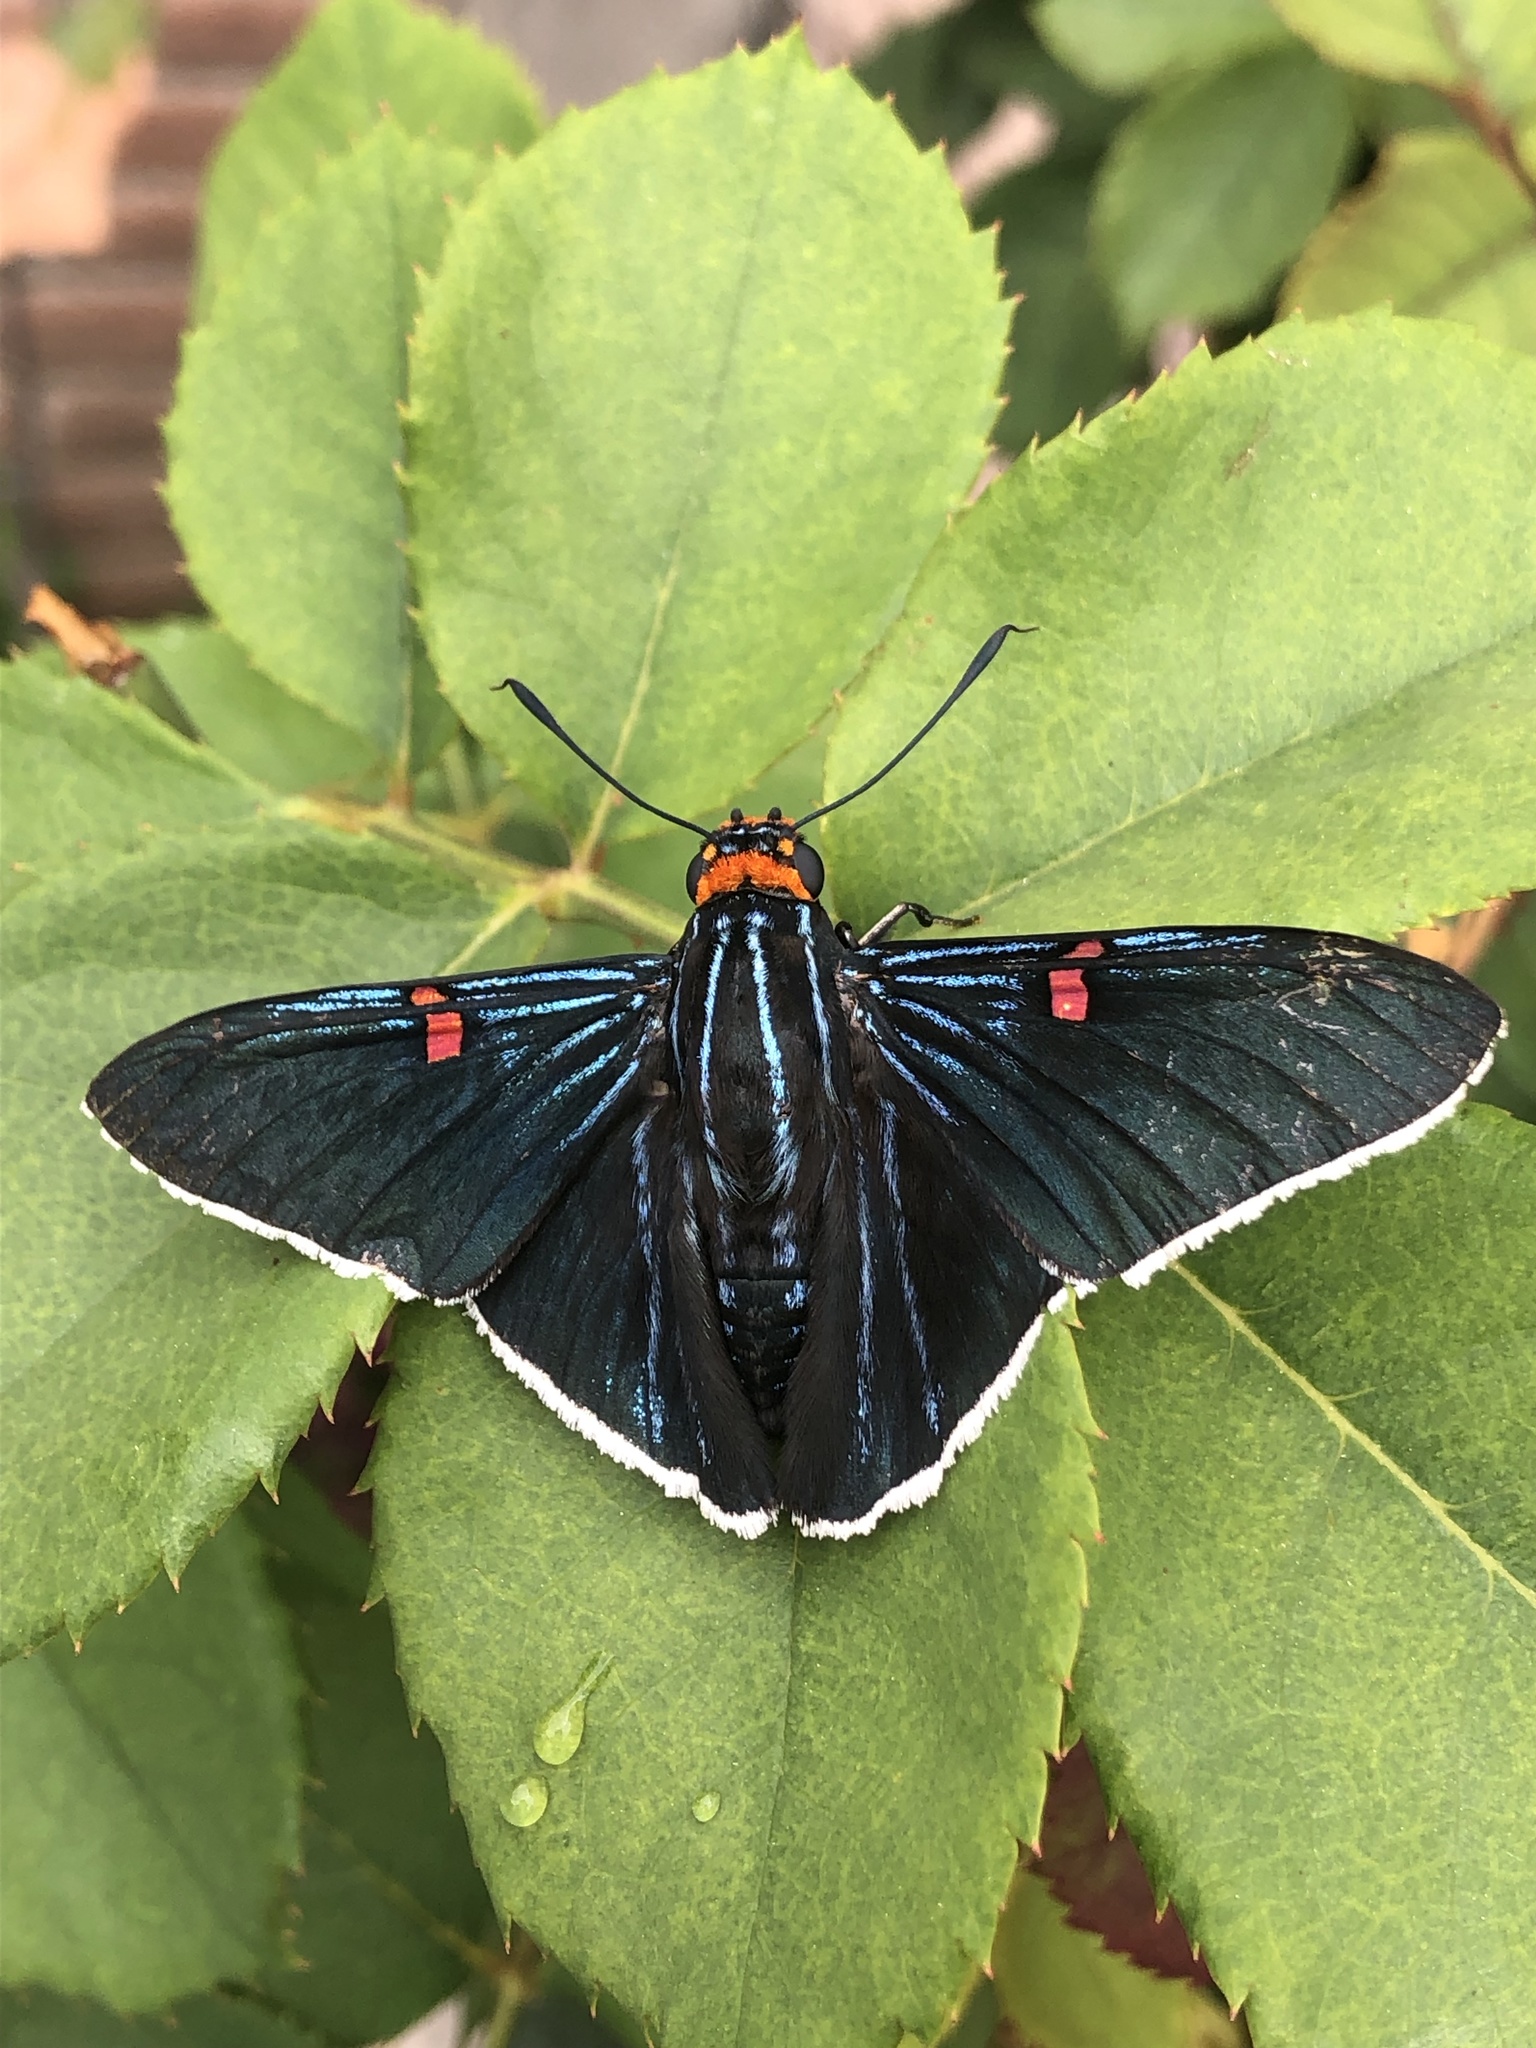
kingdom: Animalia
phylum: Arthropoda
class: Insecta
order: Lepidoptera
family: Hesperiidae
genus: Phocides
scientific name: Phocides lilea
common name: Guava skipper
